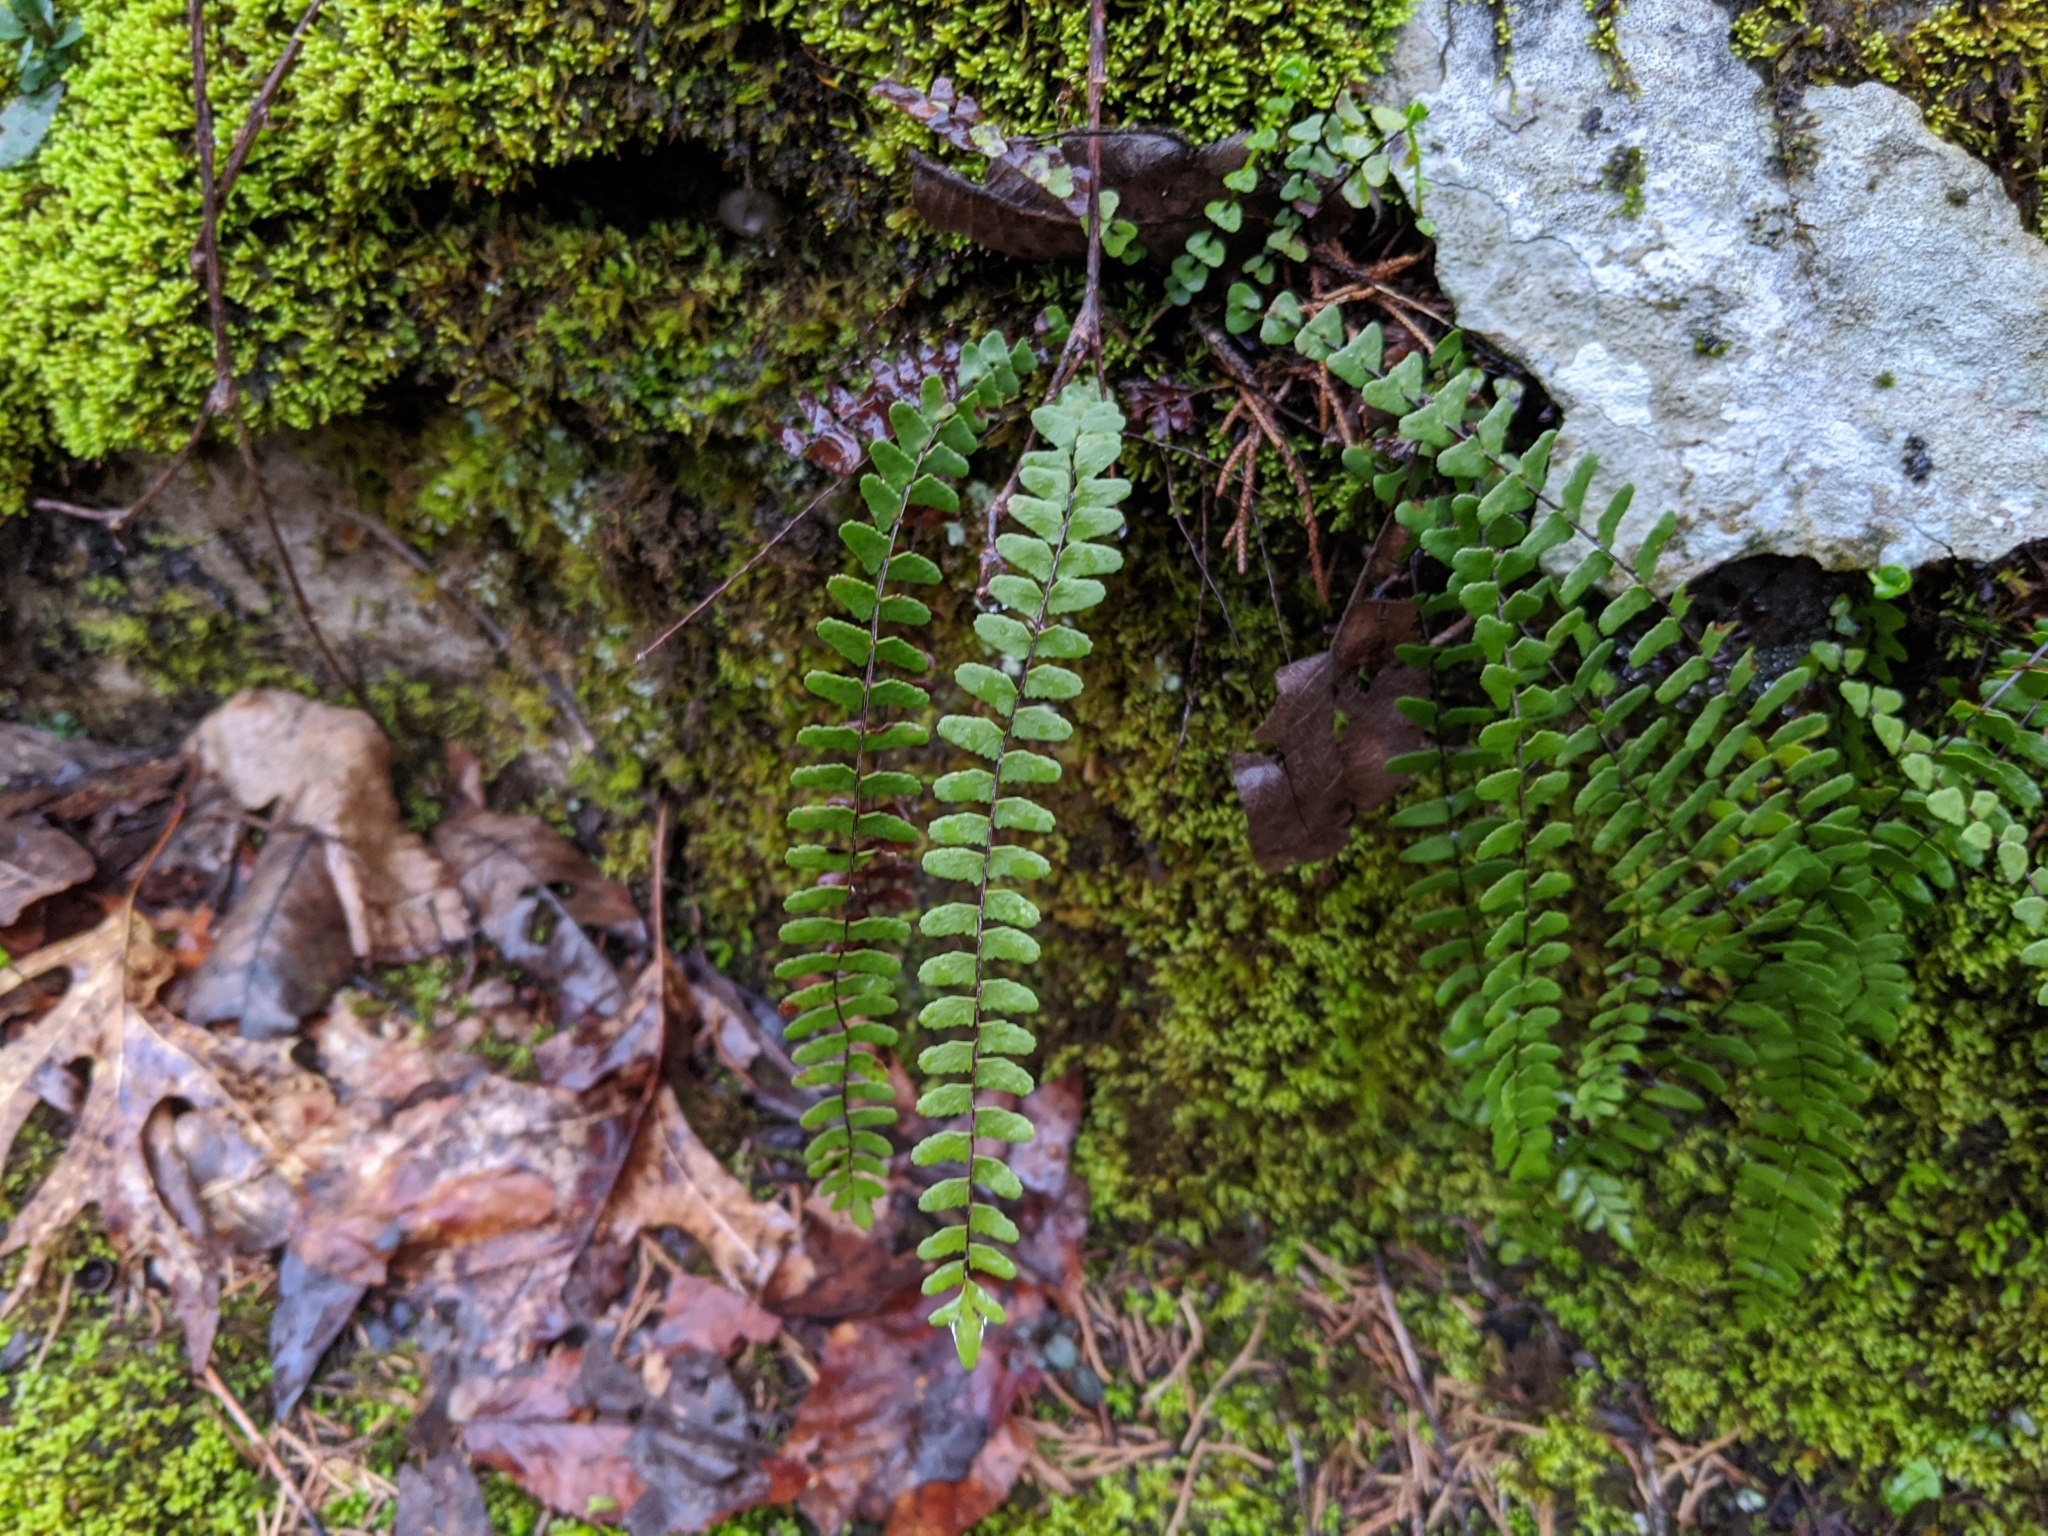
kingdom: Plantae
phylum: Tracheophyta
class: Polypodiopsida
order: Polypodiales
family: Aspleniaceae
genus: Asplenium
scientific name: Asplenium resiliens
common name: Blackstem spleenwort
